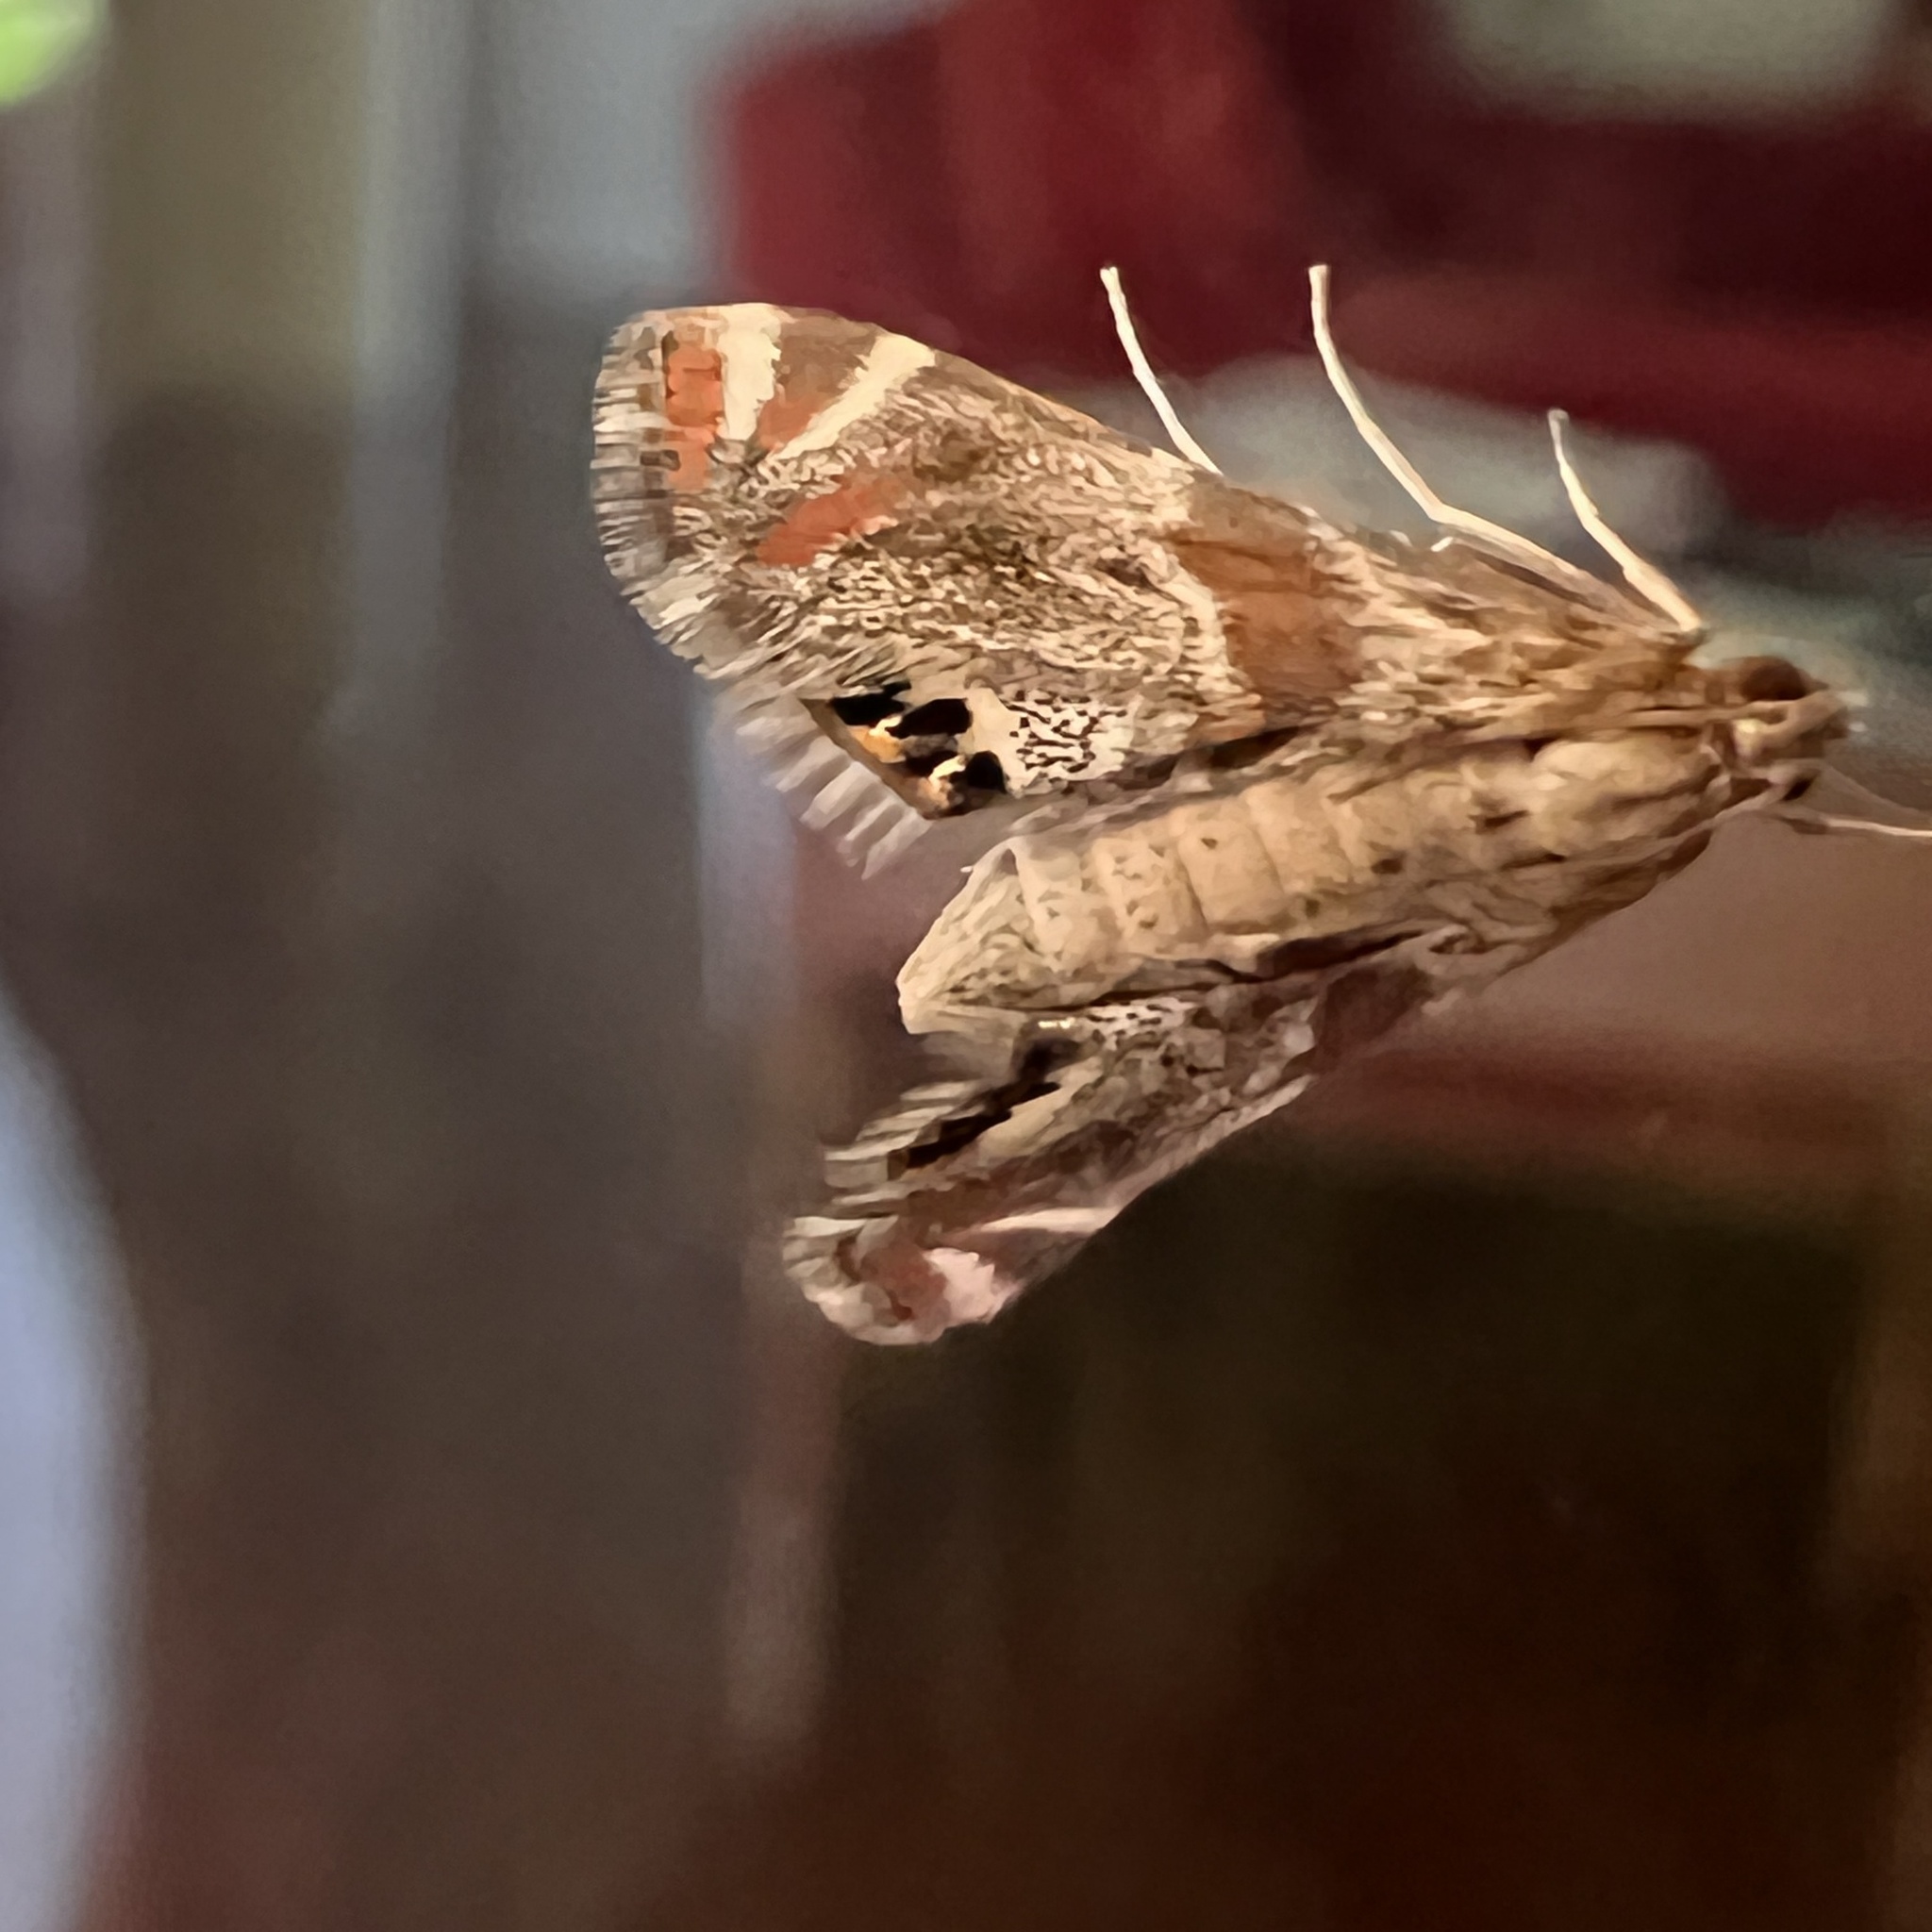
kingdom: Animalia
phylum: Arthropoda
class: Insecta
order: Lepidoptera
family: Crambidae
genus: Petrophila
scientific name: Petrophila jaliscalis
